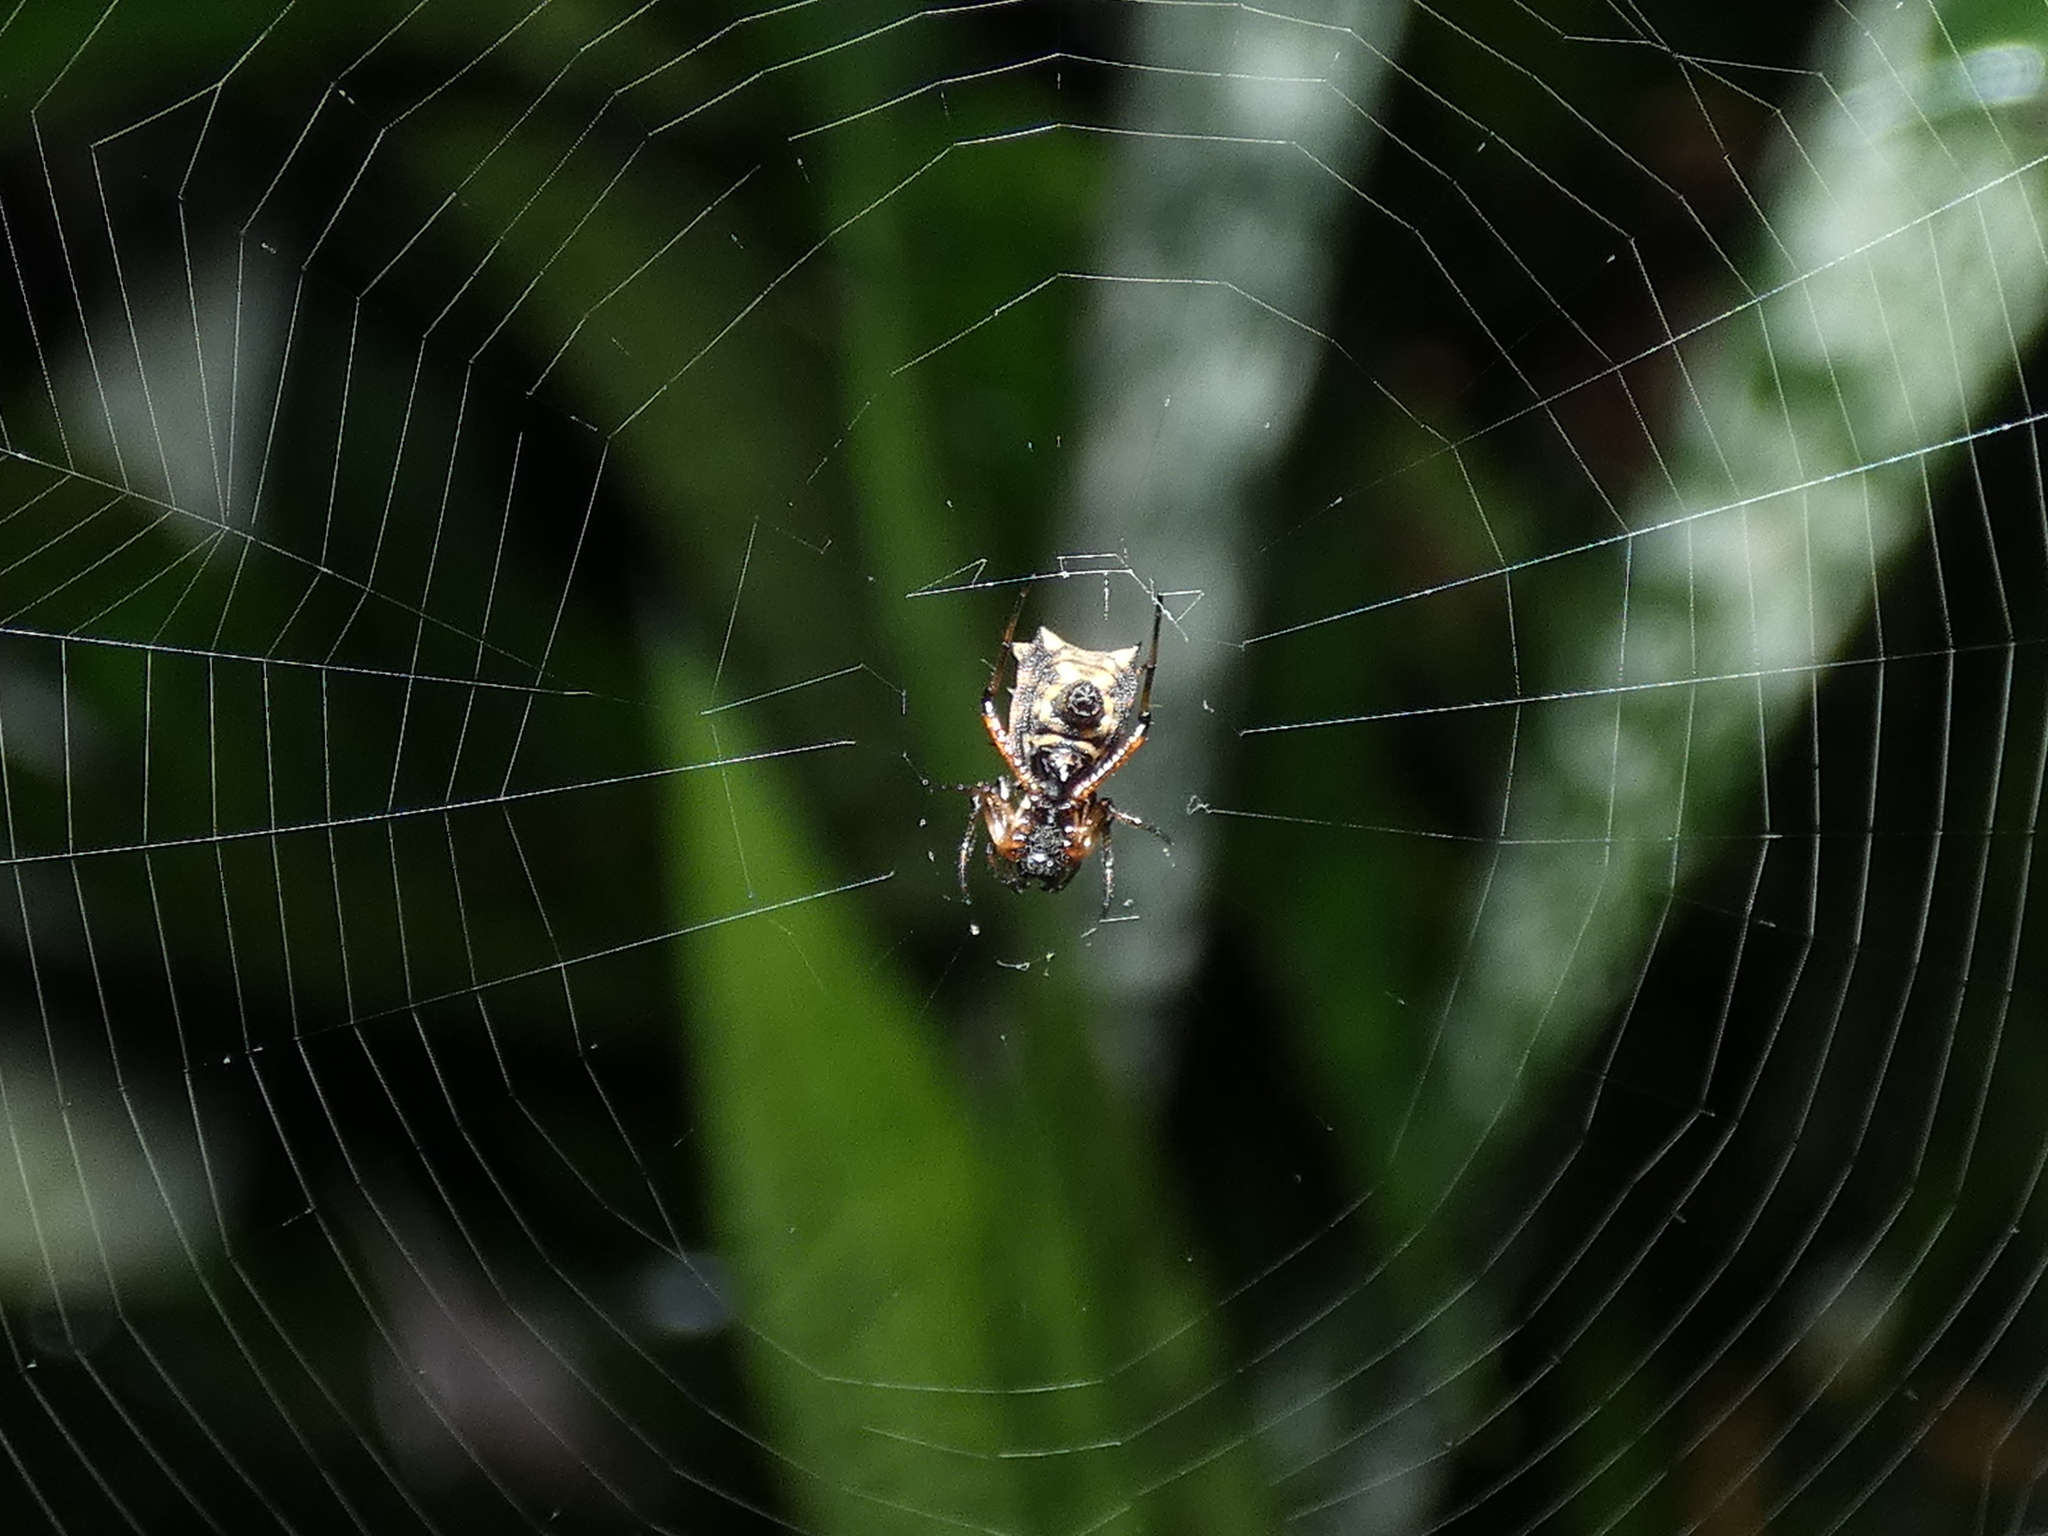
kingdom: Animalia
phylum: Arthropoda
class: Arachnida
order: Araneae
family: Araneidae
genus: Micrathena
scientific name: Micrathena picta
